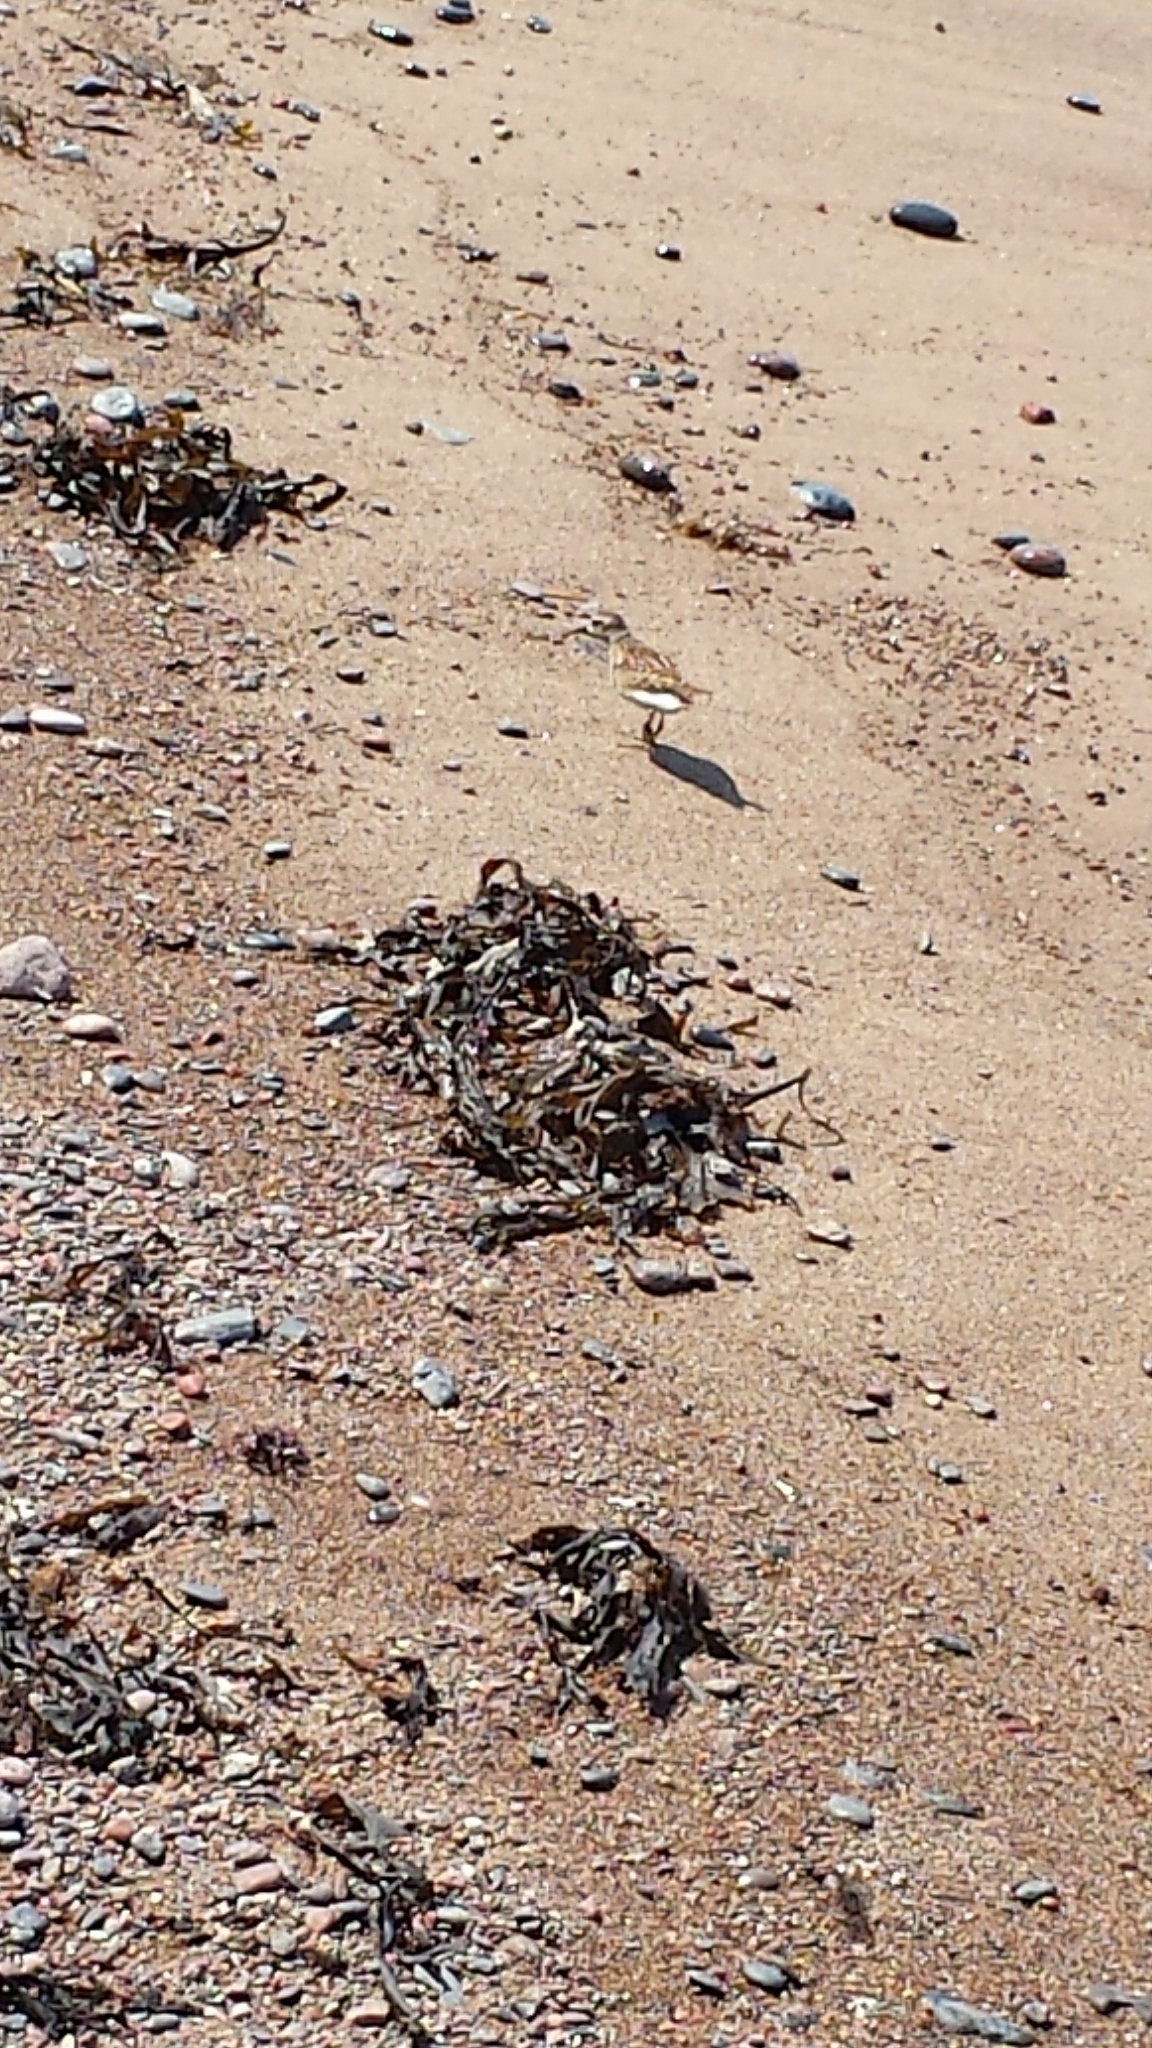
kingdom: Animalia
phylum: Chordata
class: Aves
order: Charadriiformes
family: Scolopacidae
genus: Calidris
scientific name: Calidris minutilla
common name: Least sandpiper
